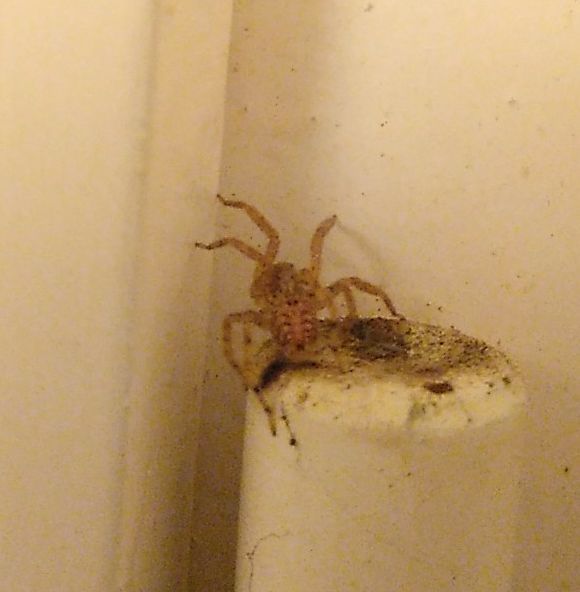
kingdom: Animalia
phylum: Arthropoda
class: Arachnida
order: Araneae
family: Zoropsidae
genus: Zoropsis
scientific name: Zoropsis spinimana
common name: Zoropsid spider
